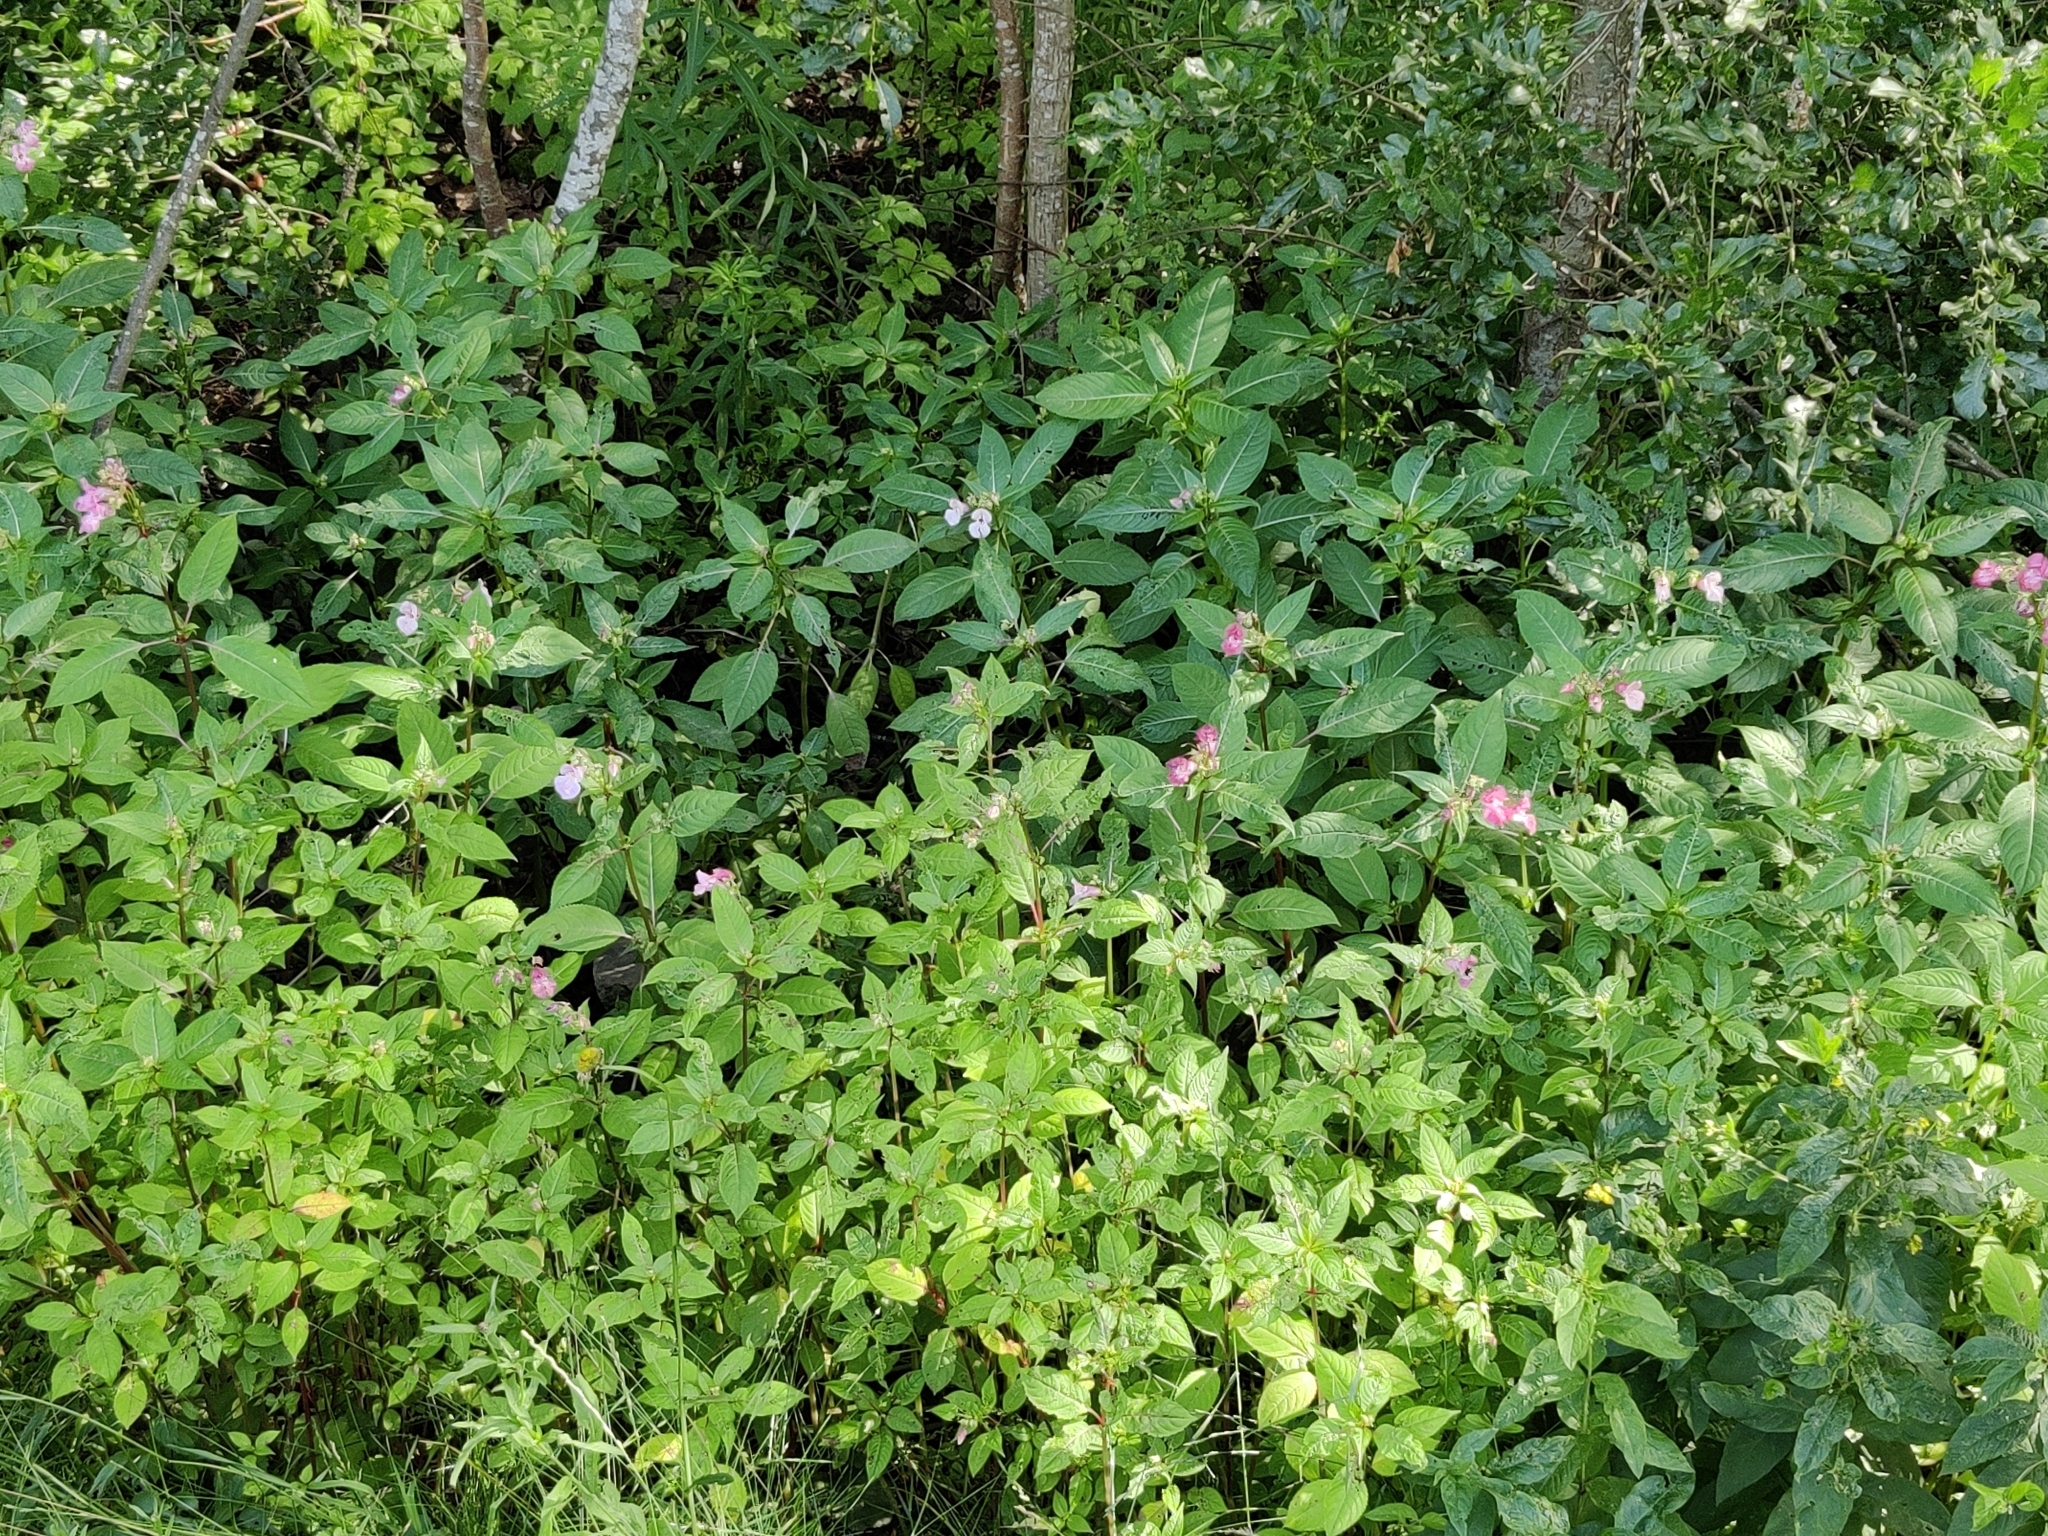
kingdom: Plantae
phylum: Tracheophyta
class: Magnoliopsida
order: Ericales
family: Balsaminaceae
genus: Impatiens
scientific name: Impatiens glandulifera
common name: Himalayan balsam
